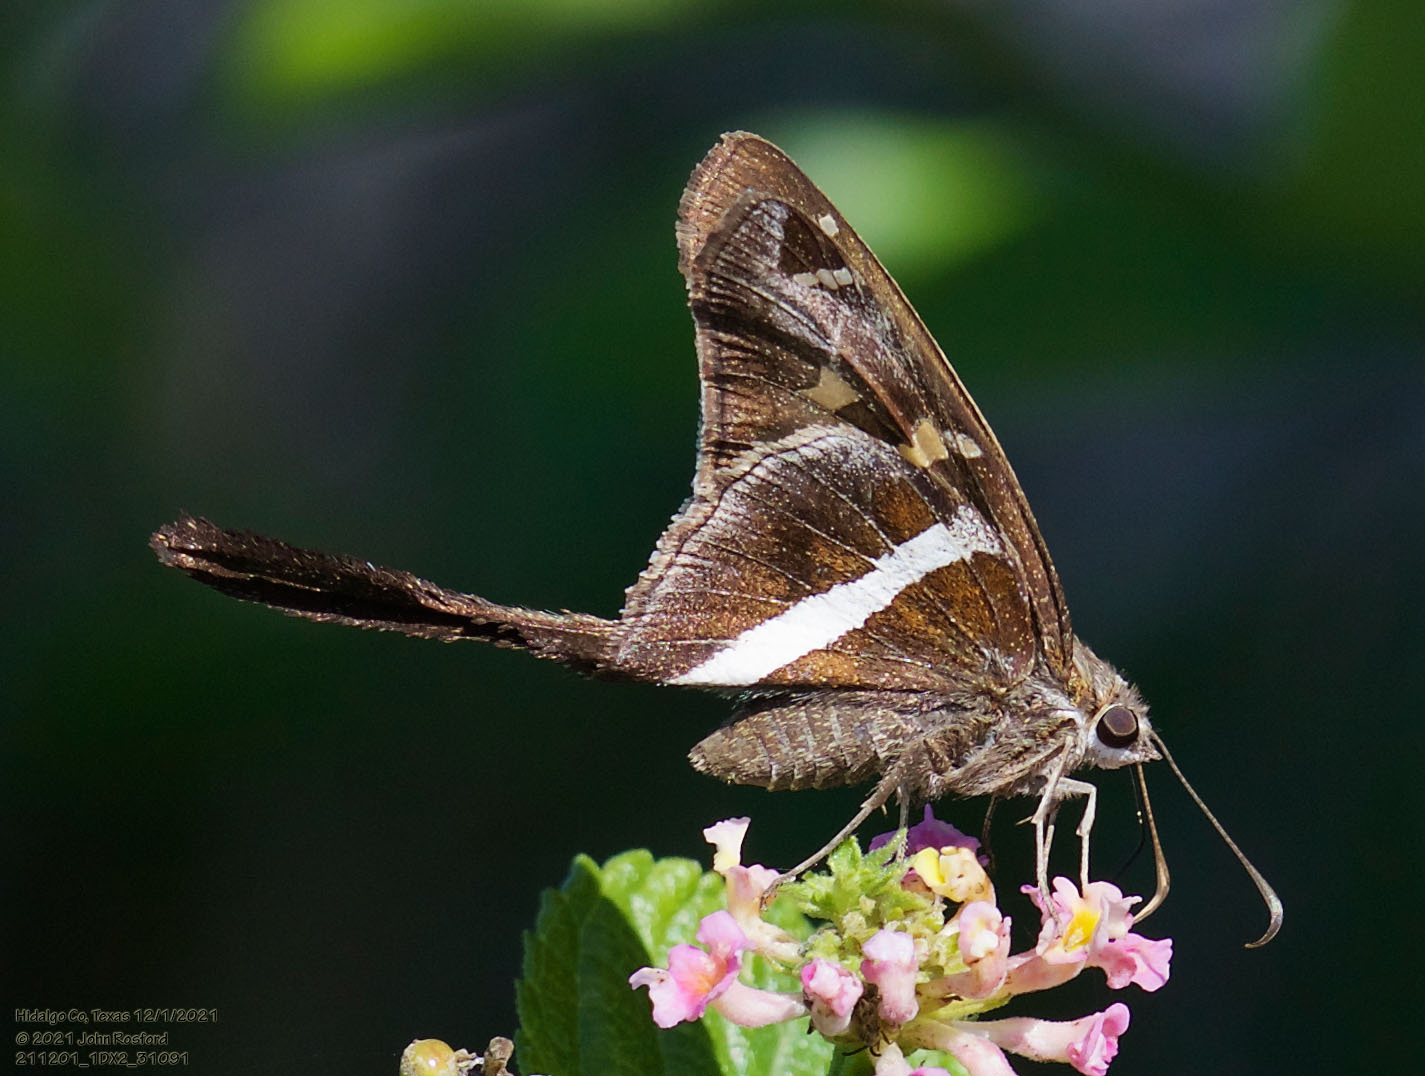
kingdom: Animalia
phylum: Arthropoda
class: Insecta
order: Lepidoptera
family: Hesperiidae
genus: Chioides
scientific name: Chioides catillus
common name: Silverbanded skipper
